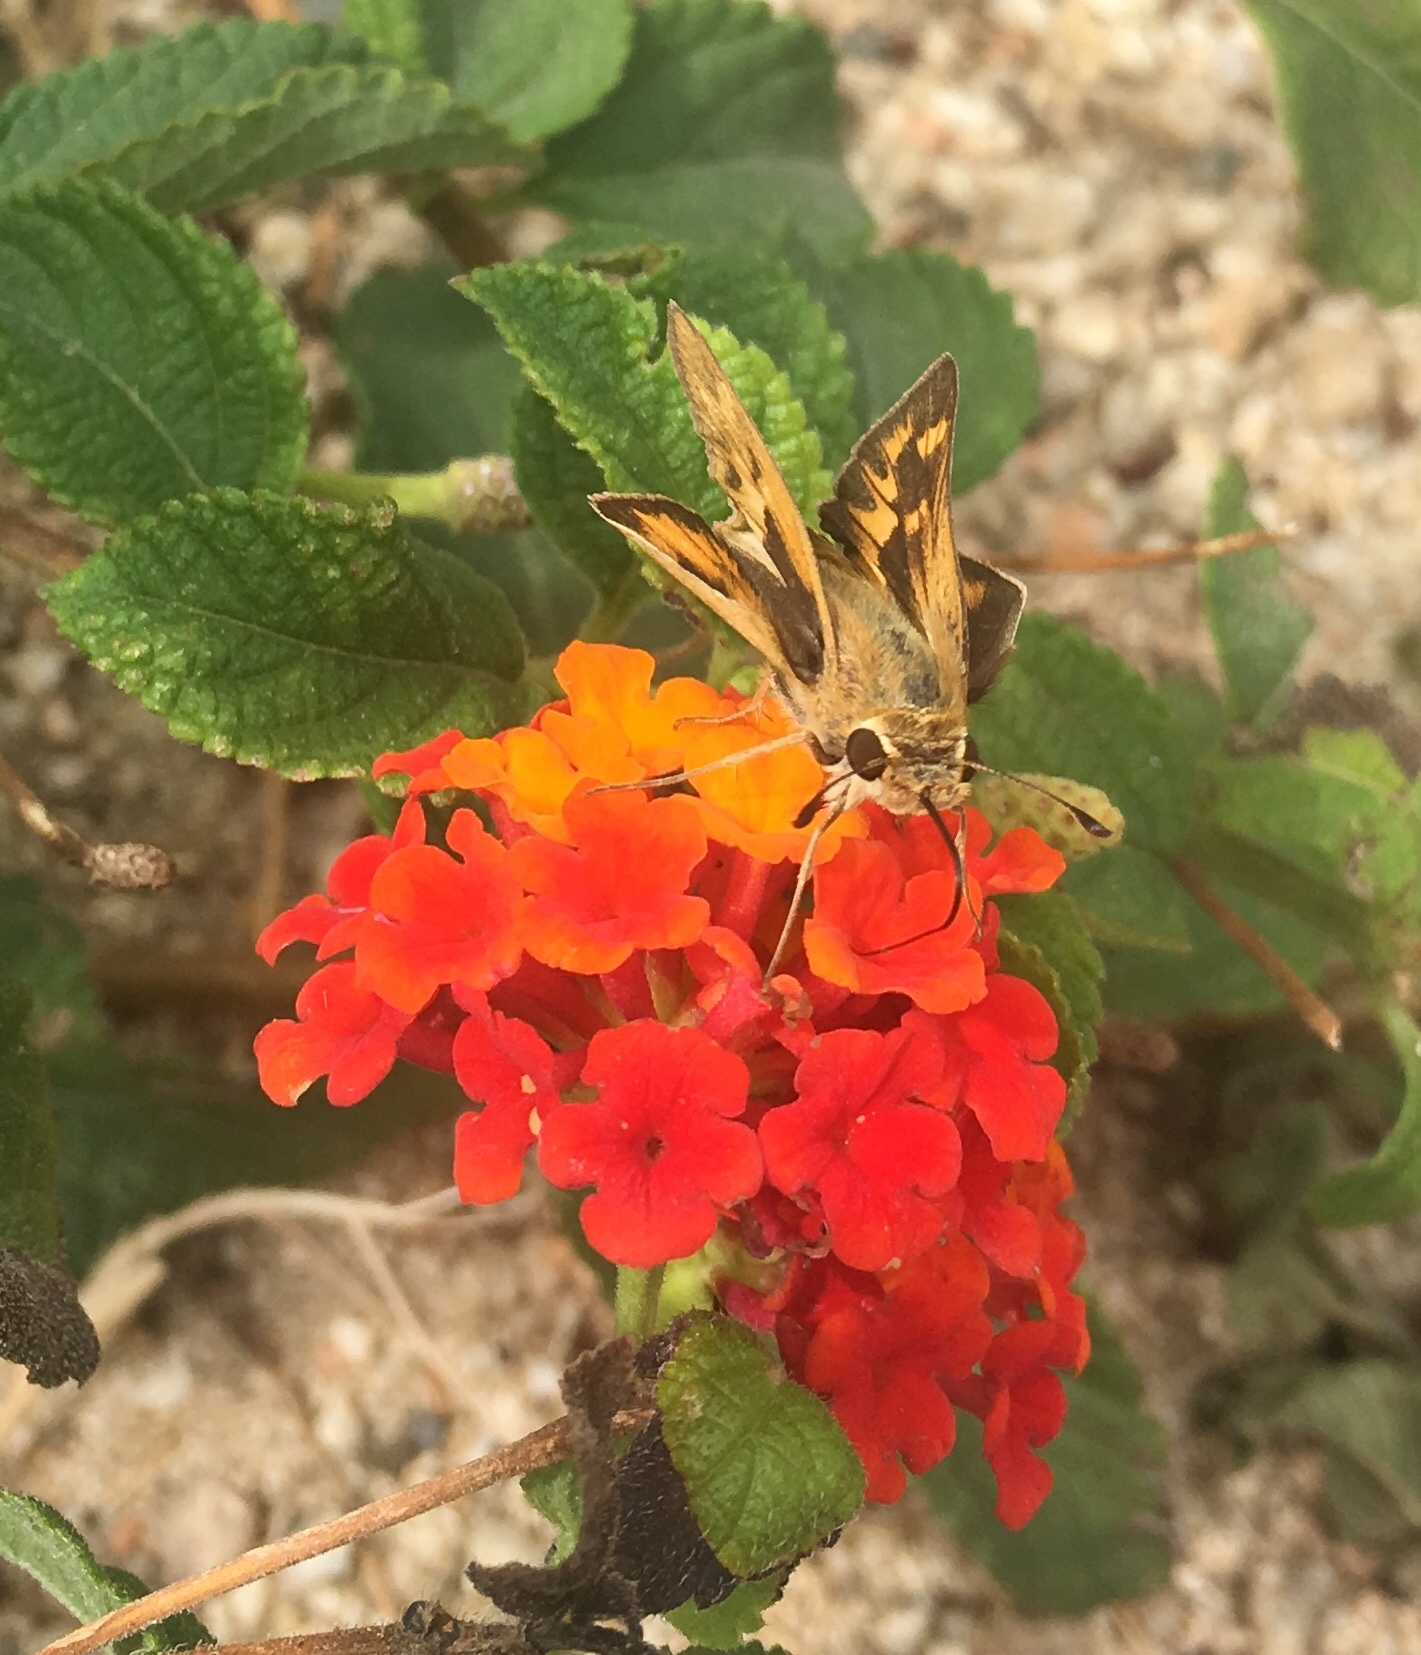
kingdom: Animalia
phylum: Arthropoda
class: Insecta
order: Lepidoptera
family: Hesperiidae
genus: Hylephila
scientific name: Hylephila phyleus
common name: Fiery skipper
